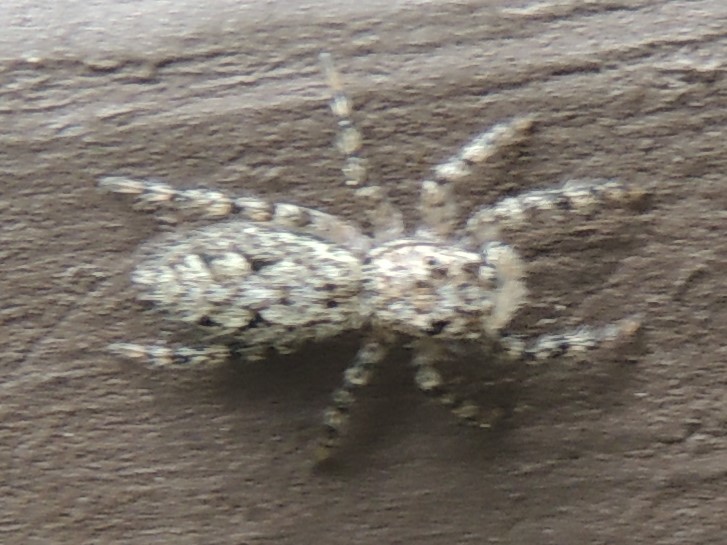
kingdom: Animalia
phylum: Arthropoda
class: Arachnida
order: Araneae
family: Salticidae
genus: Platycryptus
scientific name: Platycryptus undatus
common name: Tan jumping spider
